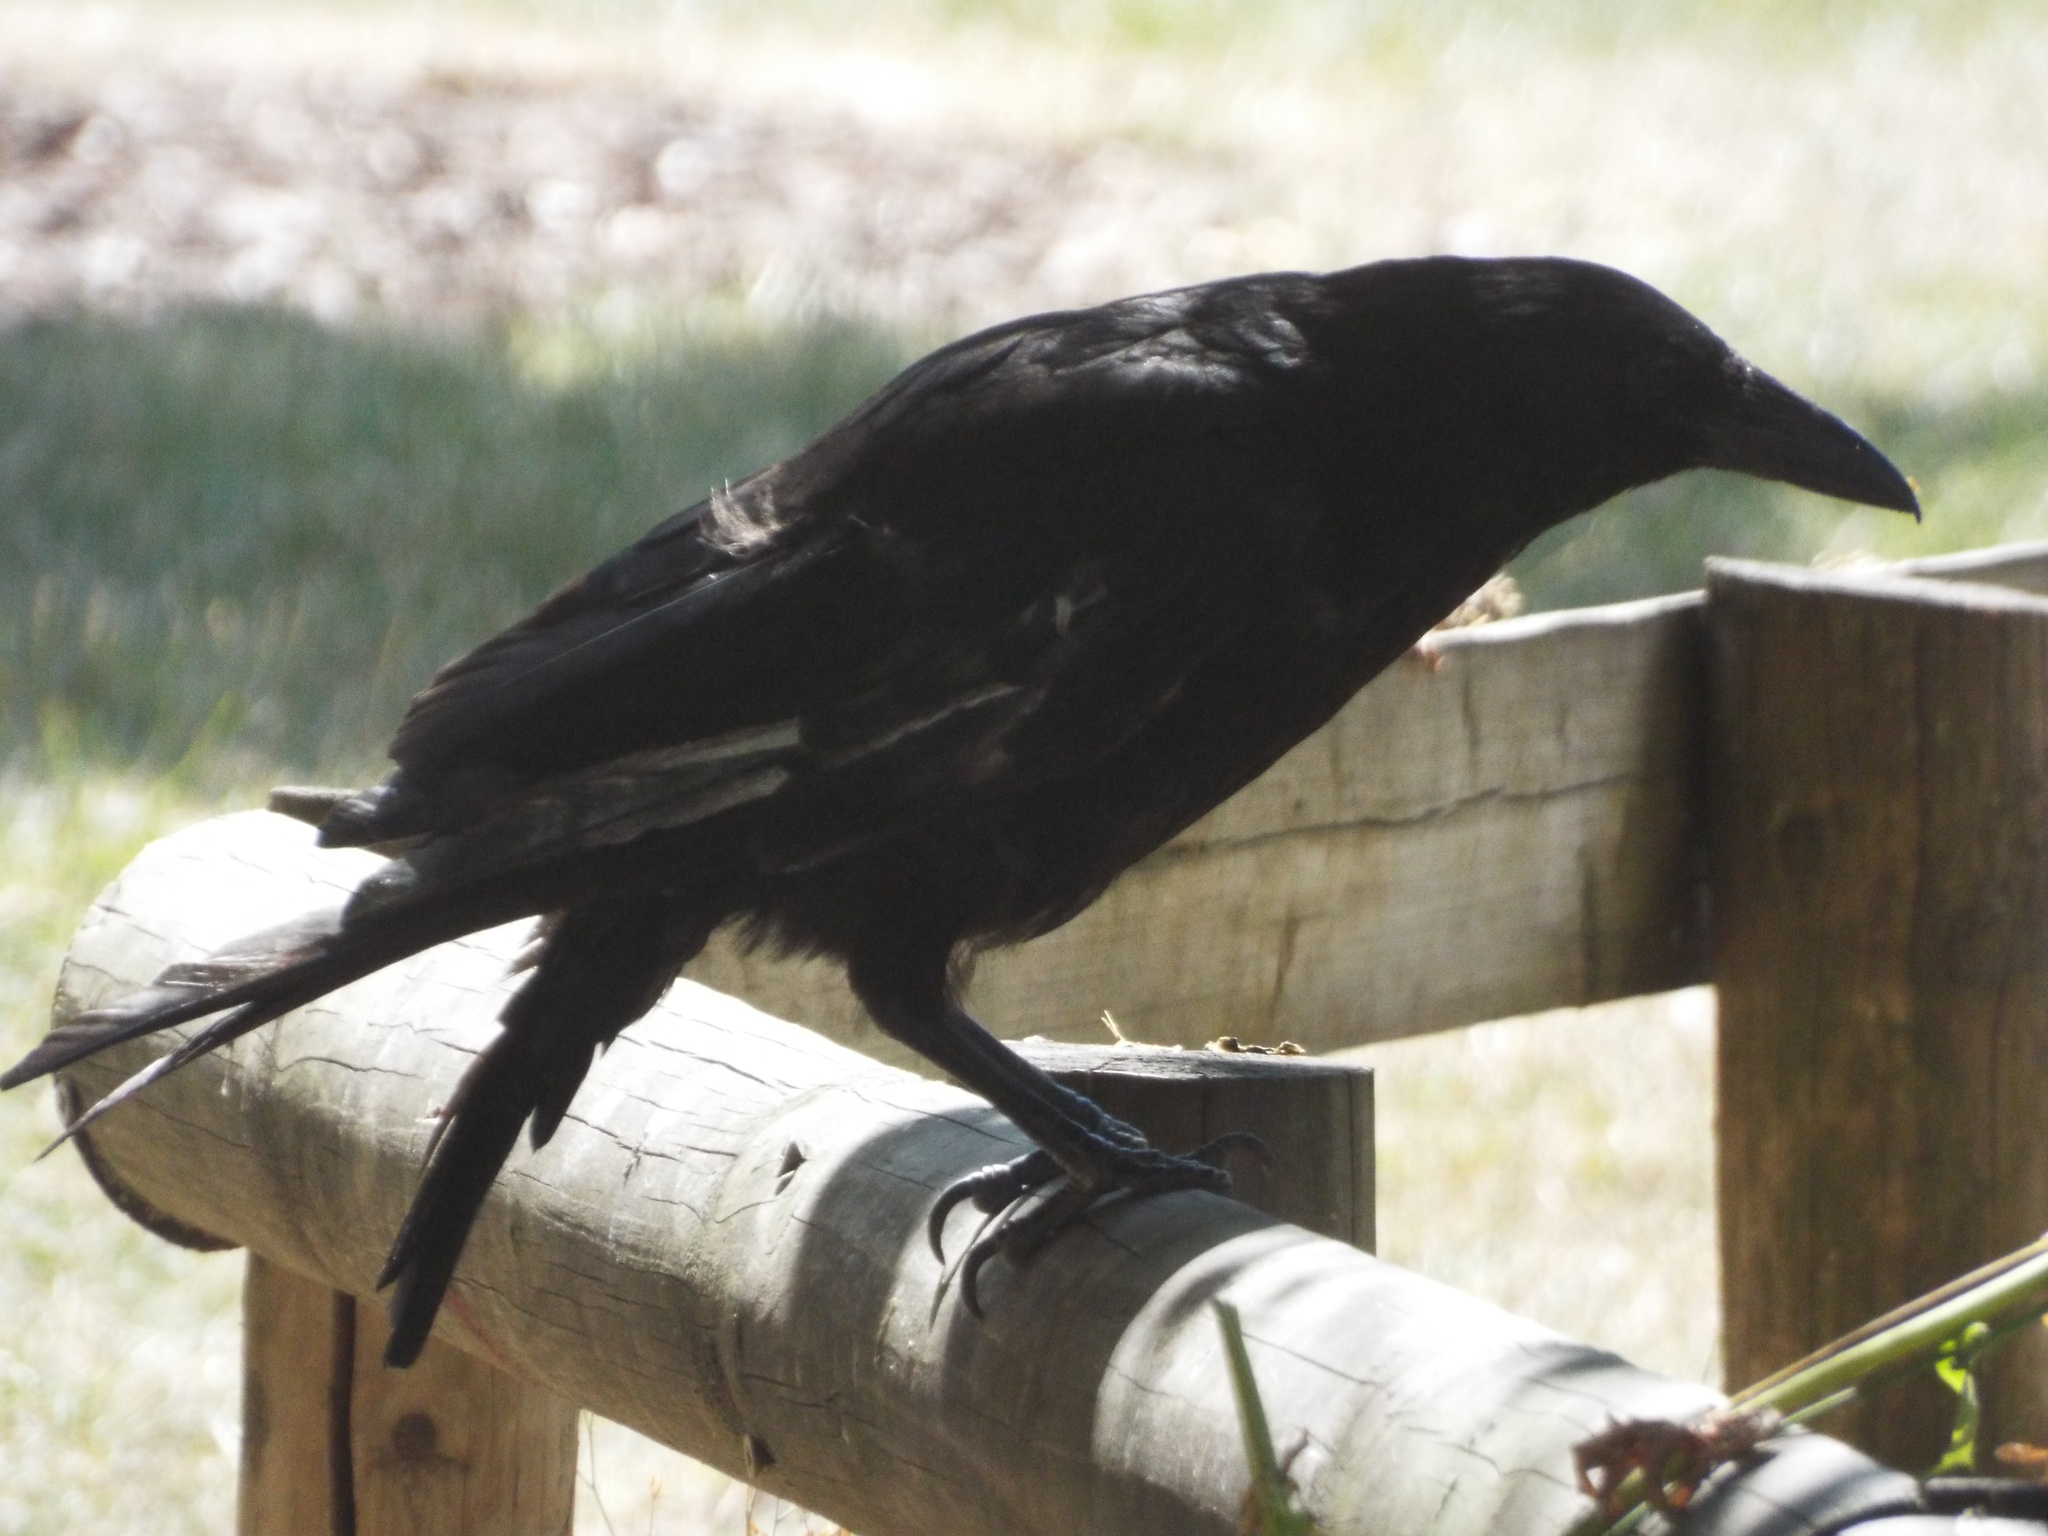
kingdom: Animalia
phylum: Chordata
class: Aves
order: Passeriformes
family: Corvidae
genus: Corvus
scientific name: Corvus corone
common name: Carrion crow
